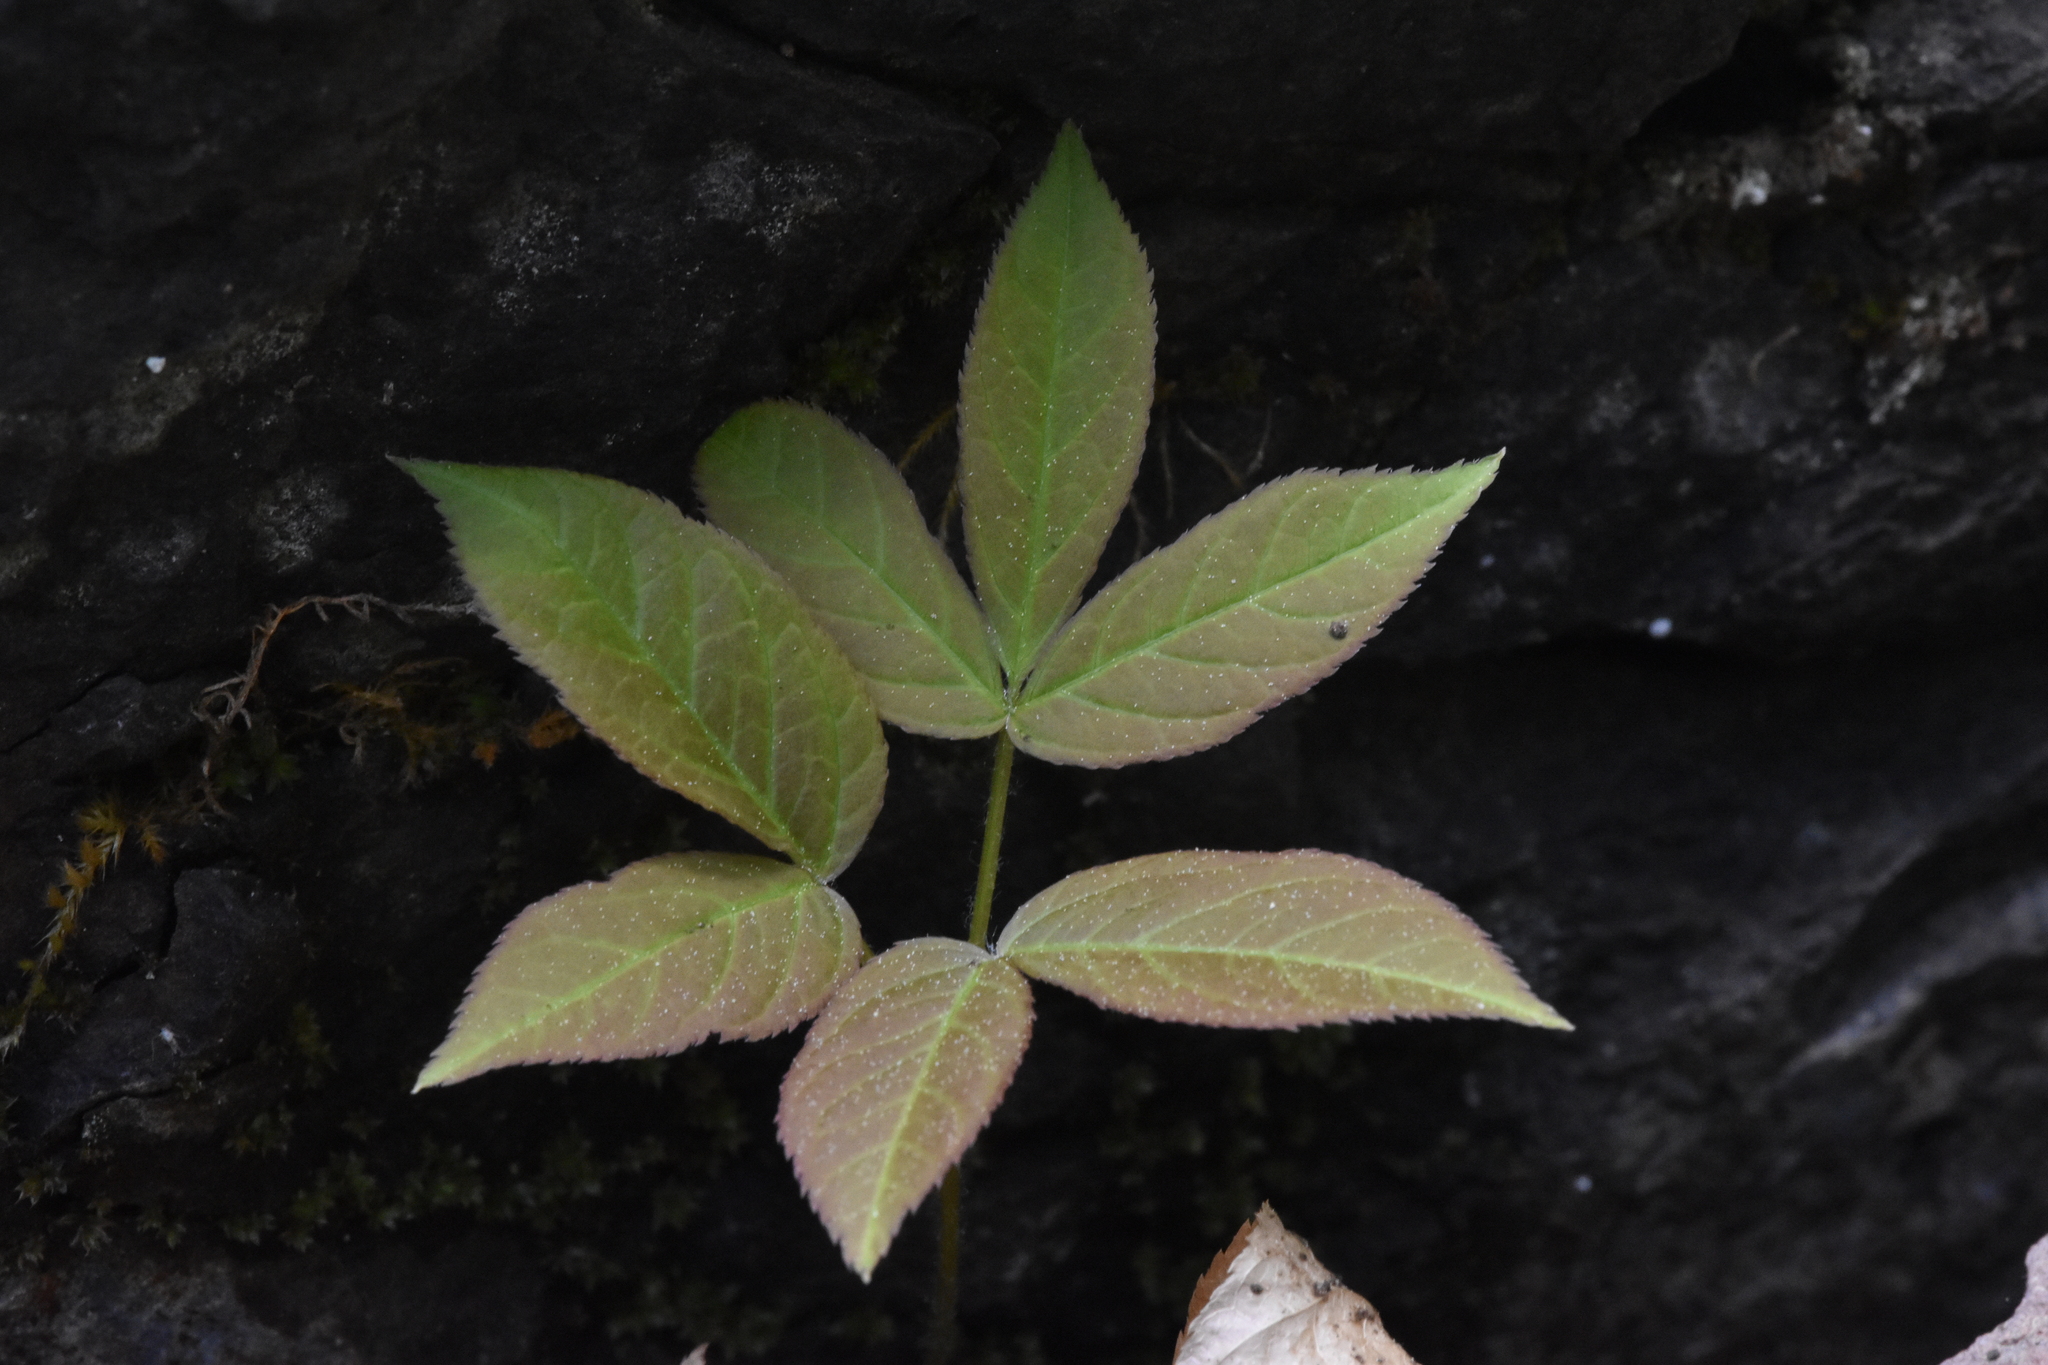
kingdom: Plantae
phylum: Tracheophyta
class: Magnoliopsida
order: Apiales
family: Araliaceae
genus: Aralia
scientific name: Aralia nudicaulis
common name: Wild sarsaparilla
